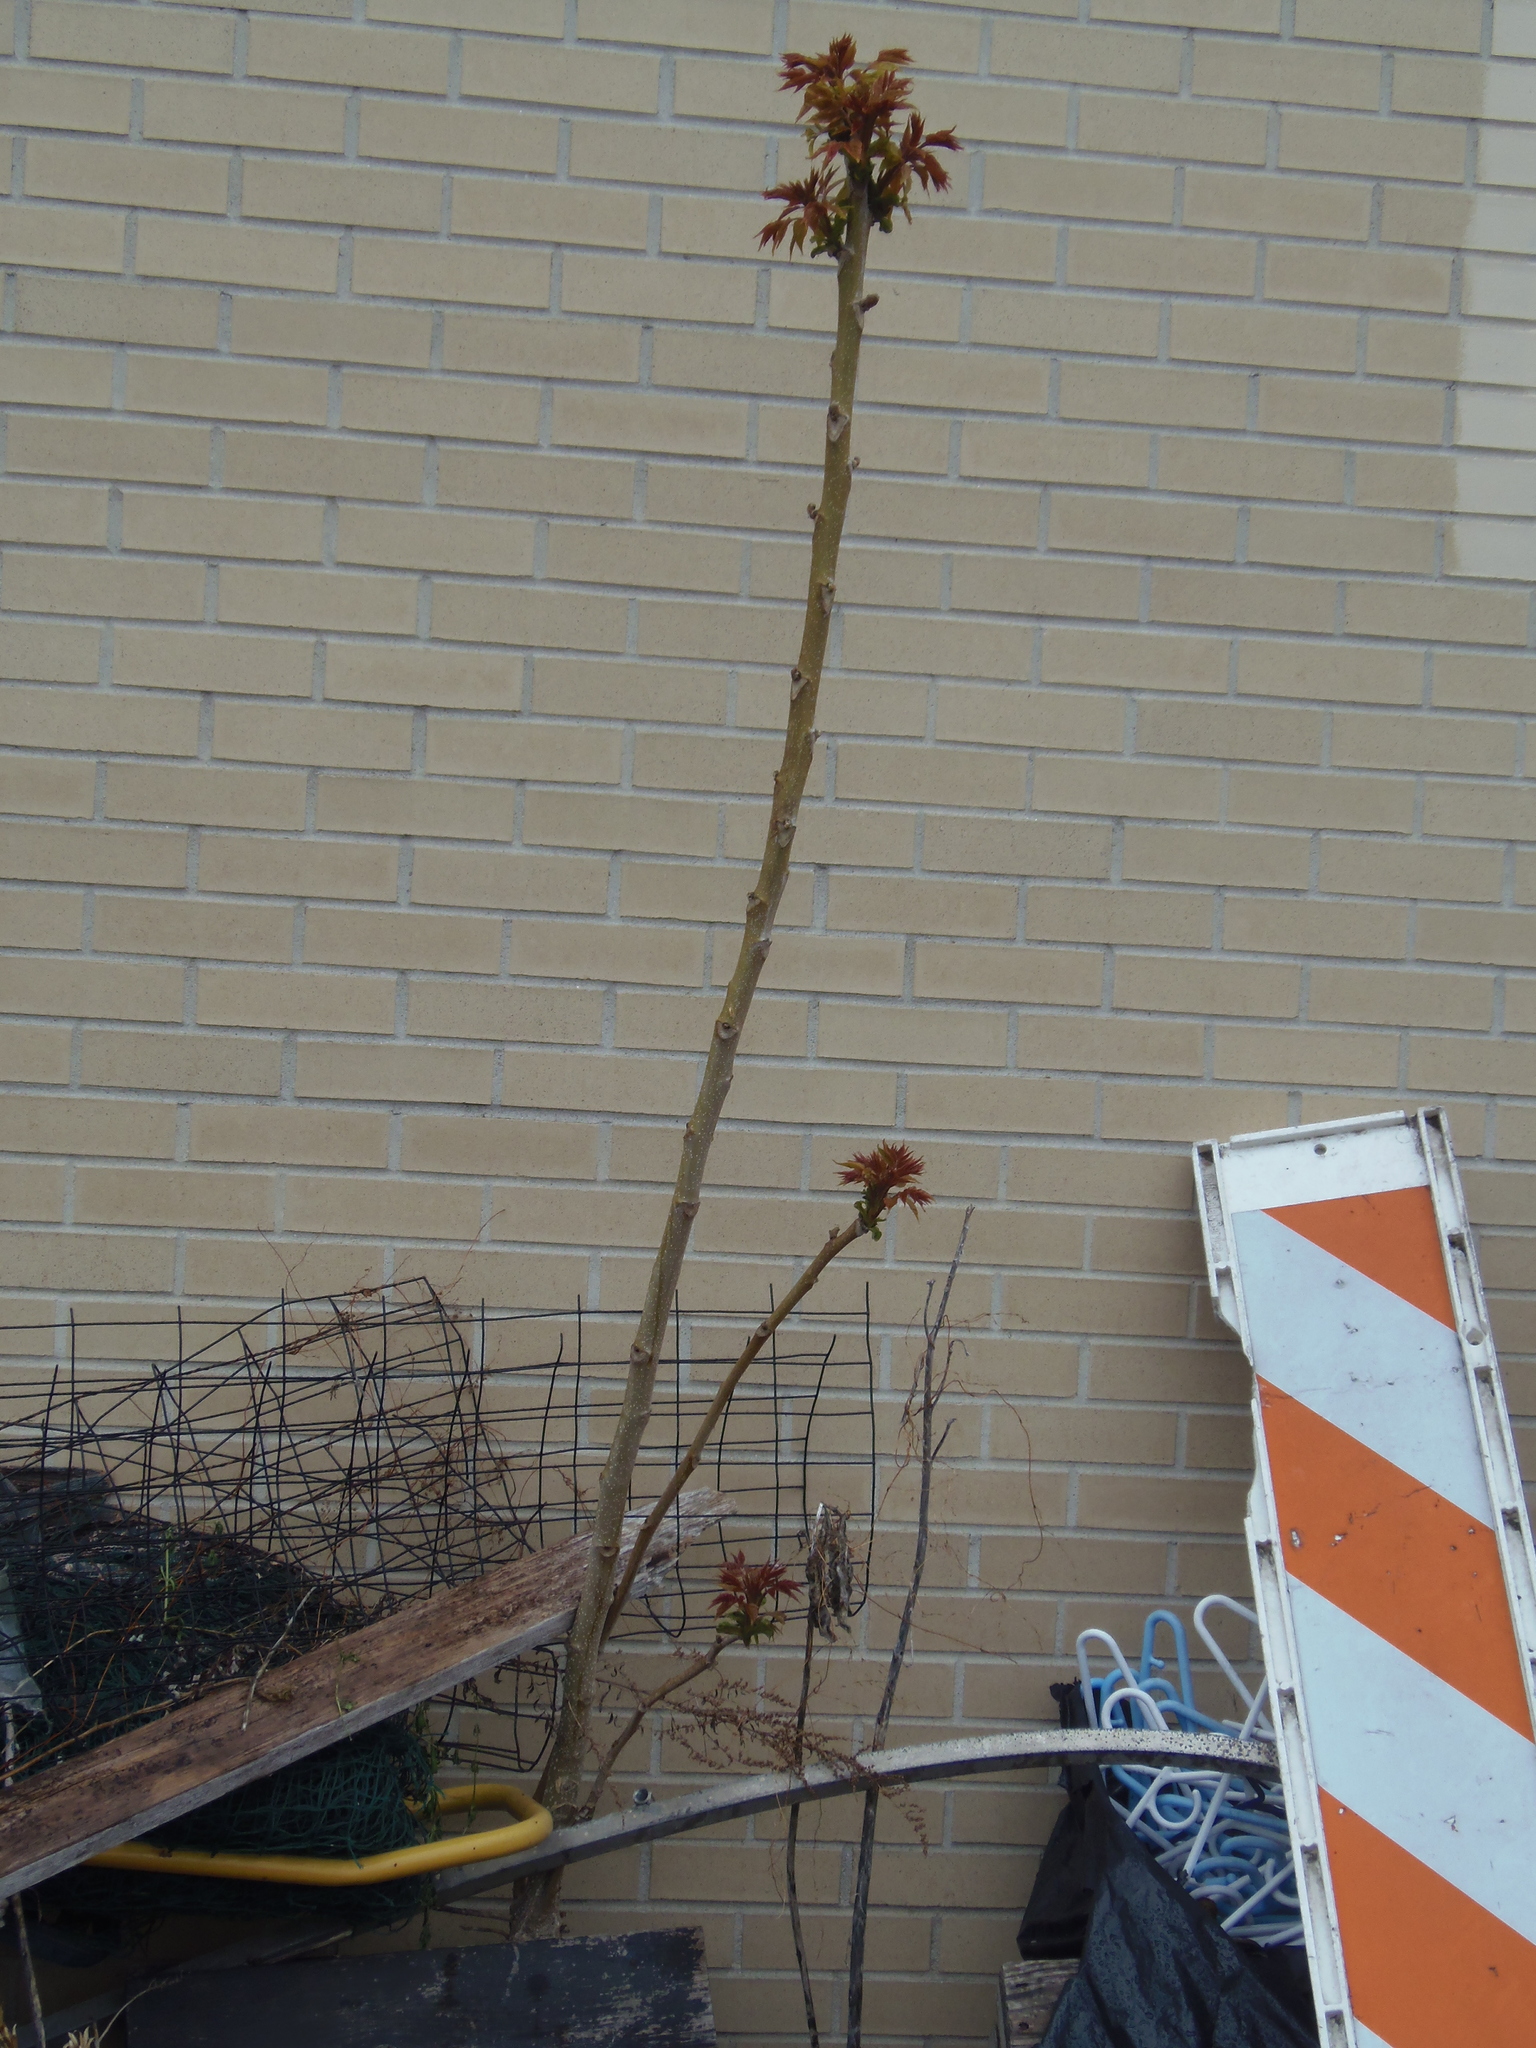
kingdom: Plantae
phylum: Tracheophyta
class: Magnoliopsida
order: Sapindales
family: Simaroubaceae
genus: Ailanthus
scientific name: Ailanthus altissima
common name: Tree-of-heaven
